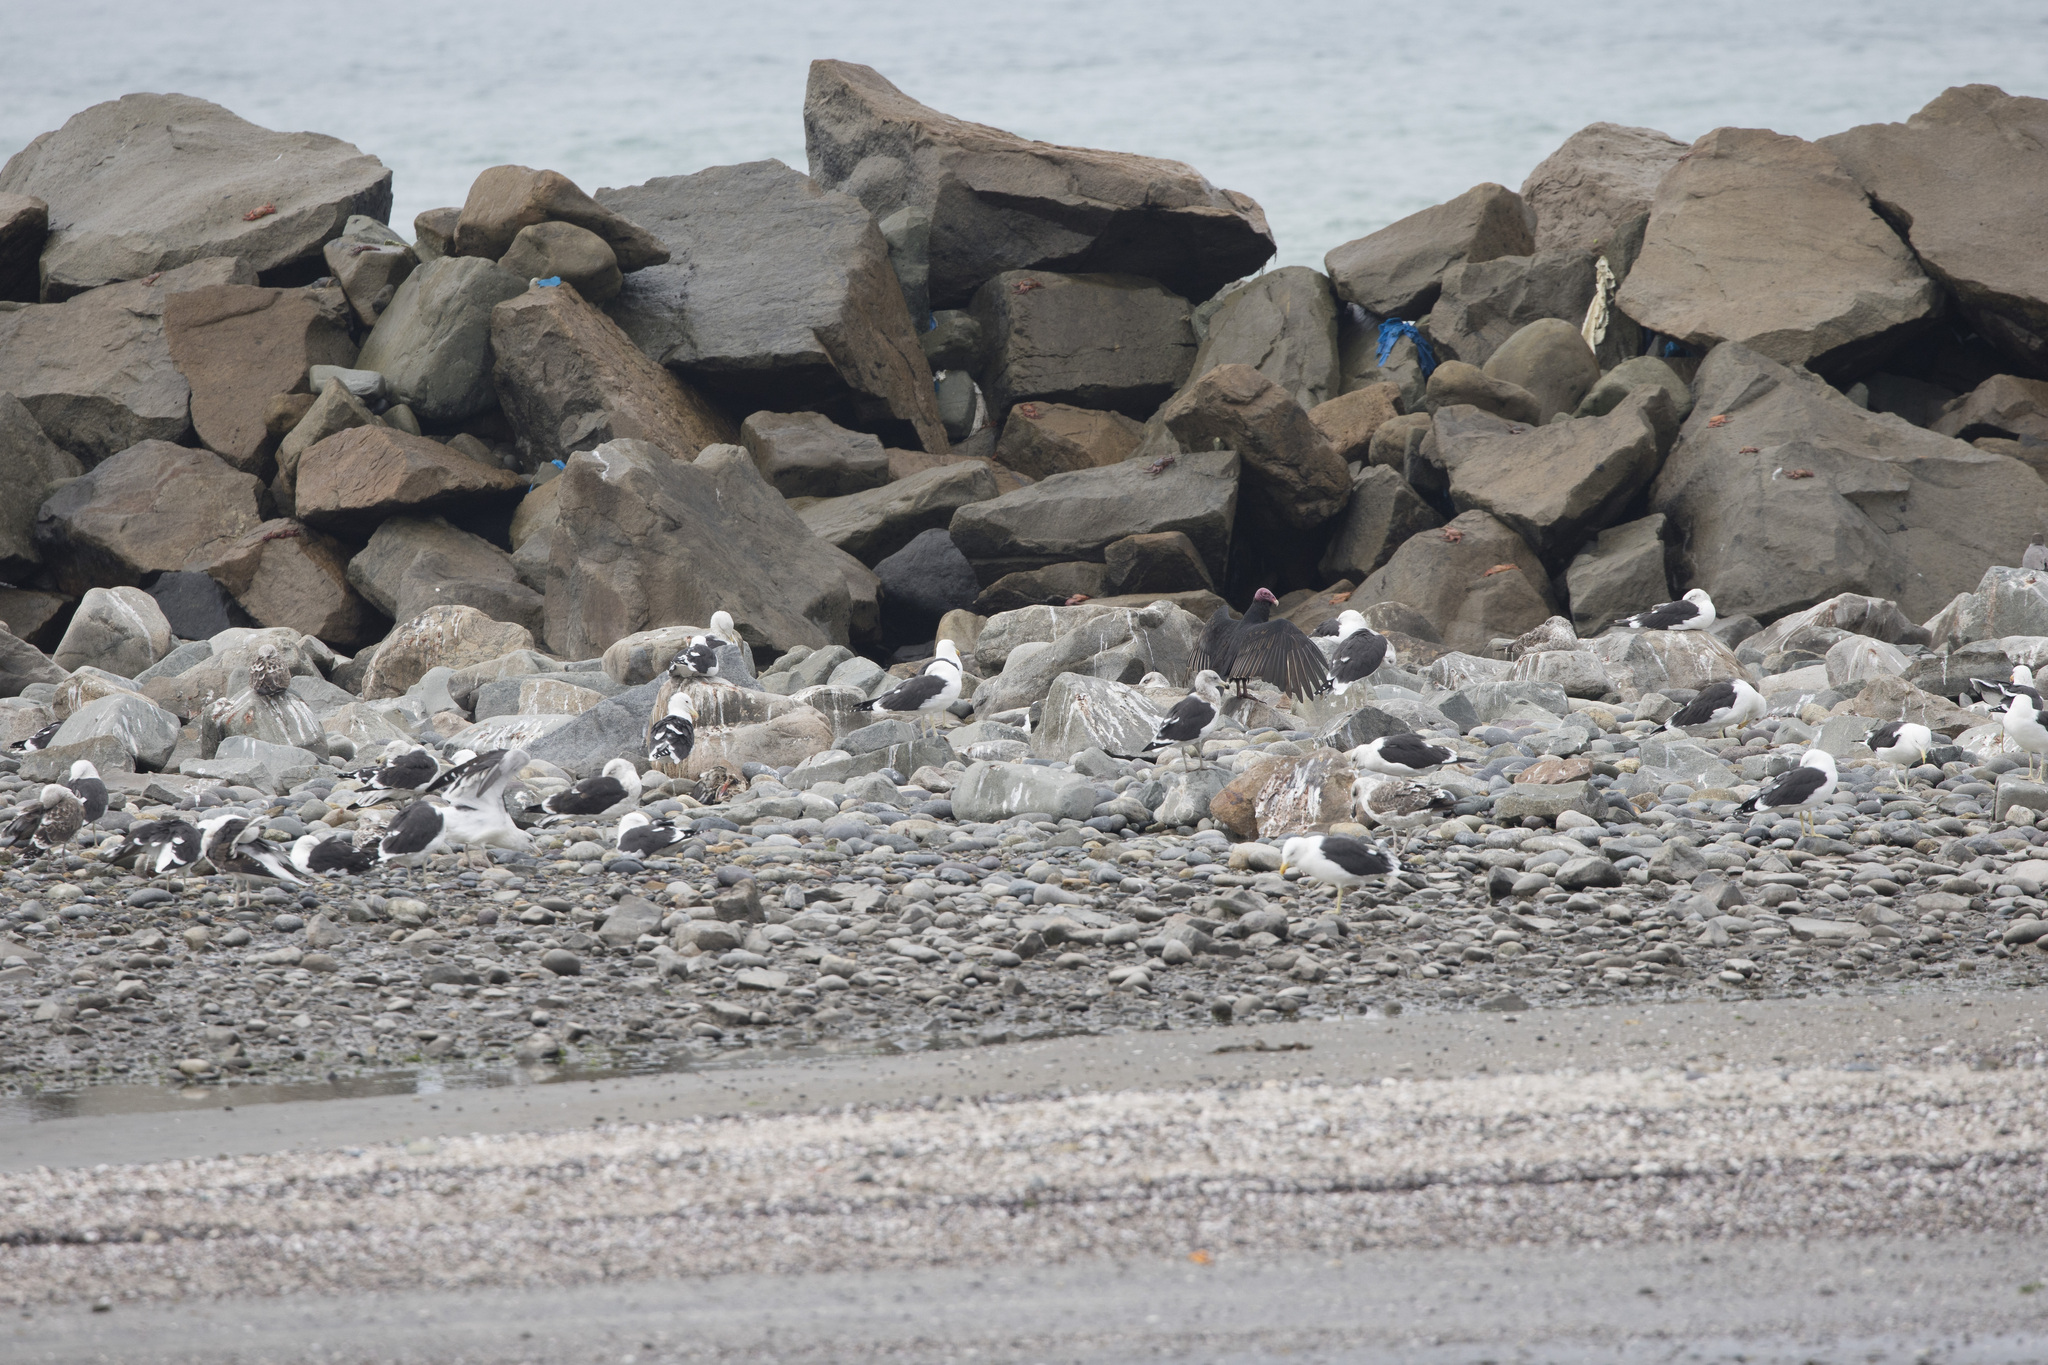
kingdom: Animalia
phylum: Chordata
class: Aves
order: Accipitriformes
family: Cathartidae
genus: Cathartes
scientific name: Cathartes aura
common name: Turkey vulture
